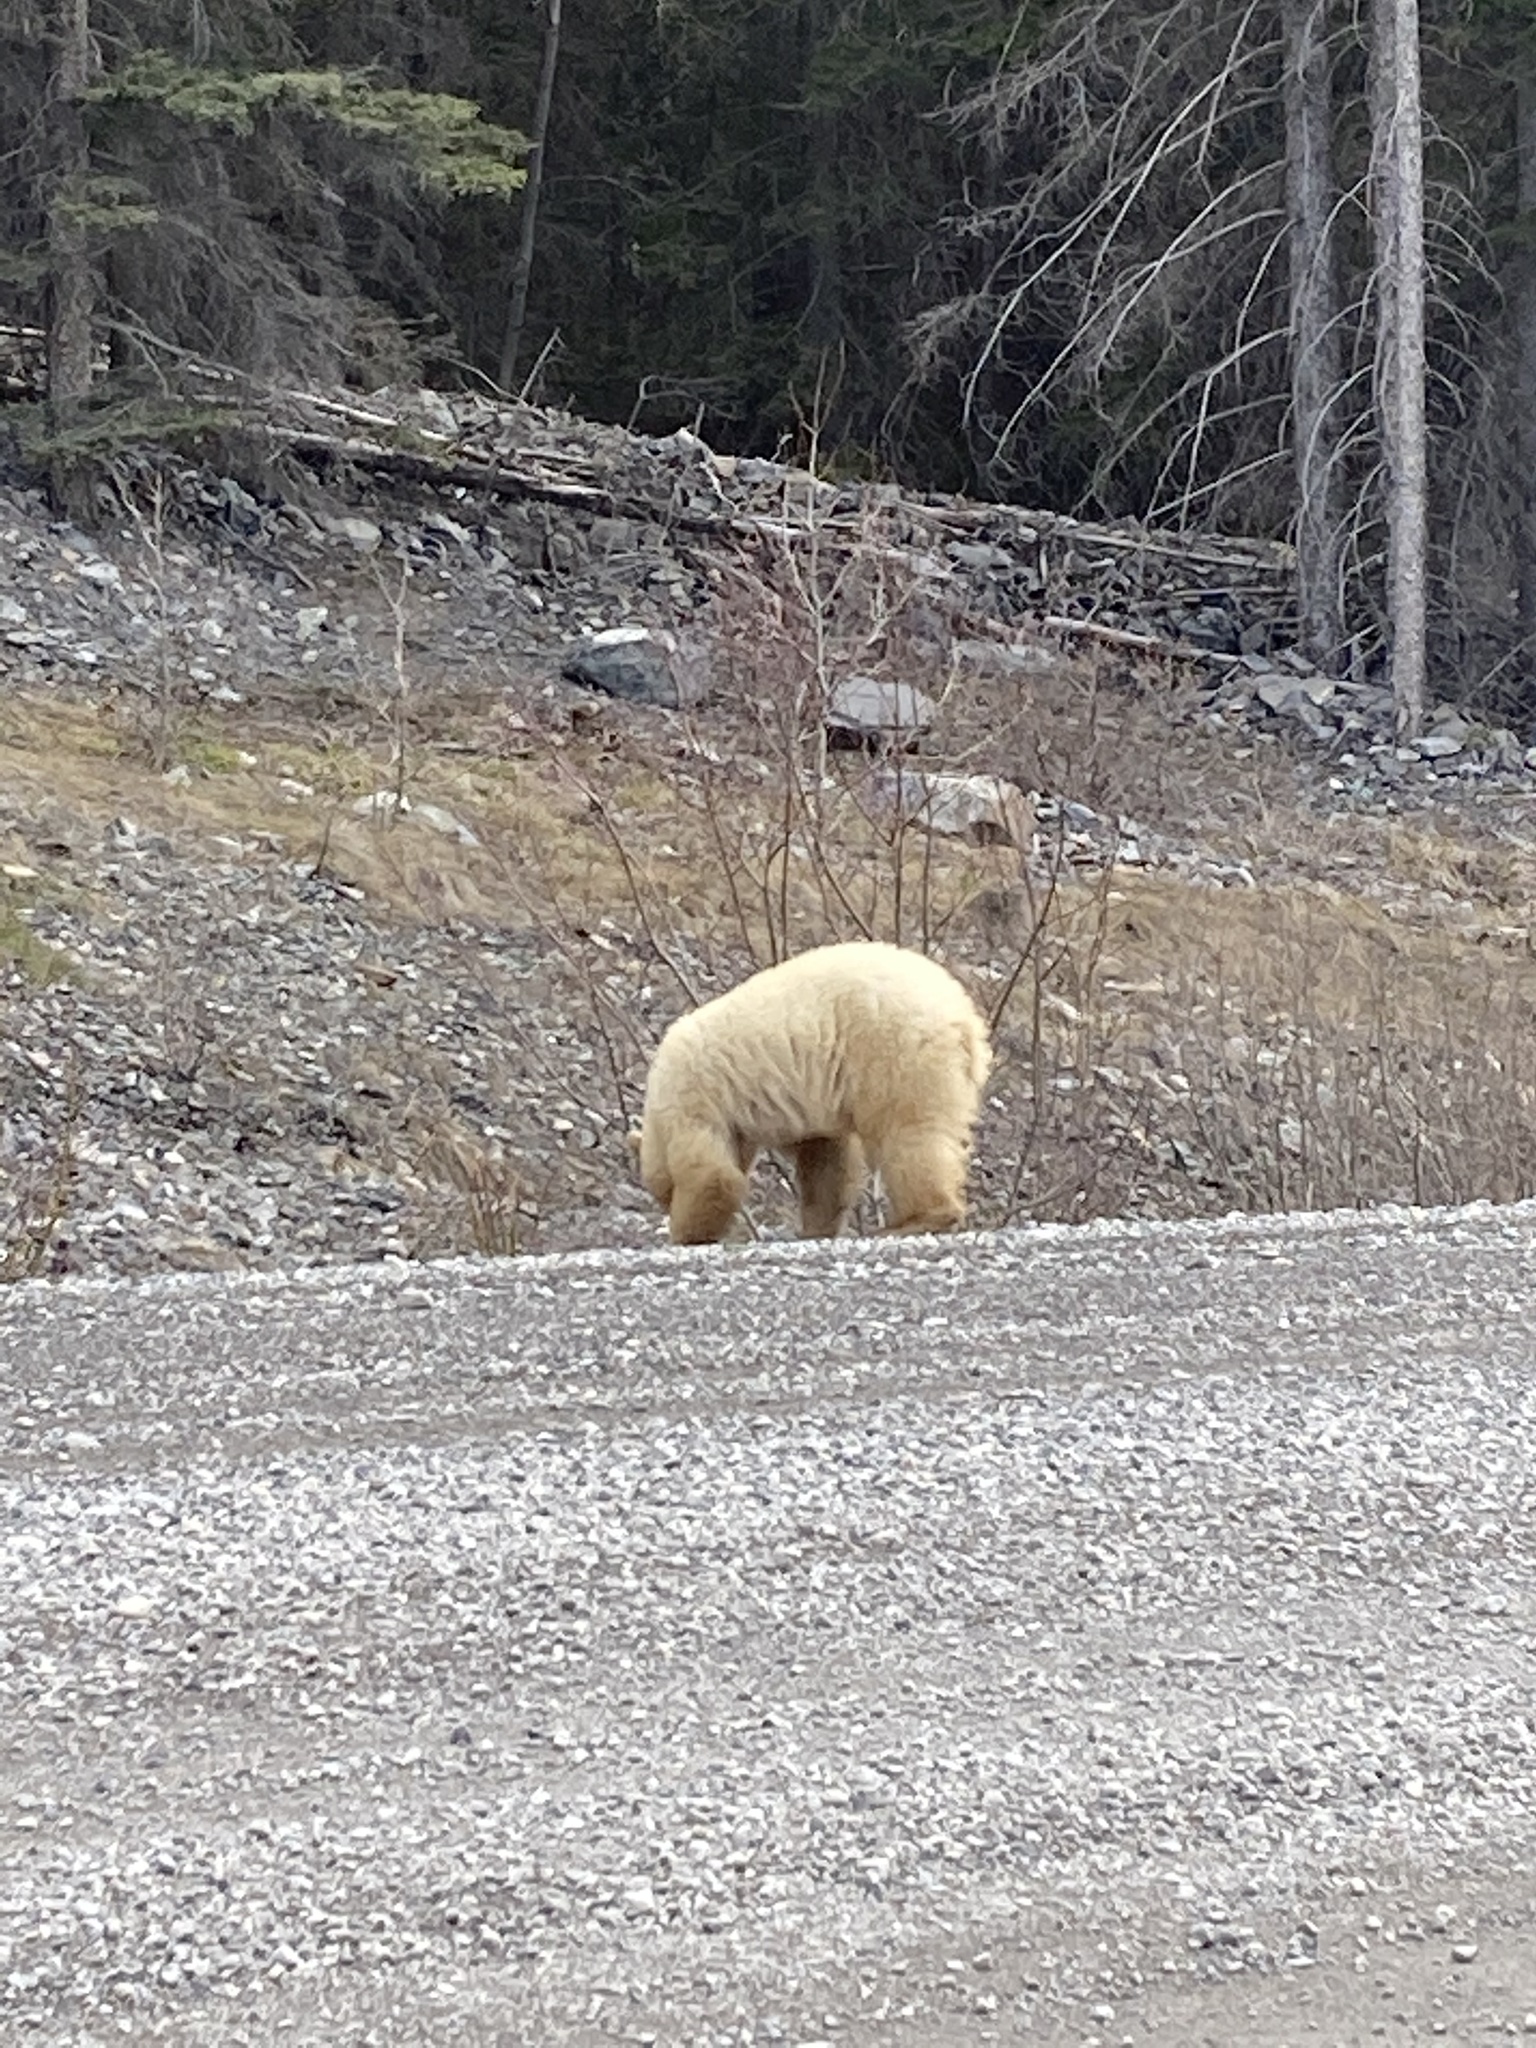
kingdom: Animalia
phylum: Chordata
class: Mammalia
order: Carnivora
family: Ursidae
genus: Ursus
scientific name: Ursus americanus
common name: American black bear
